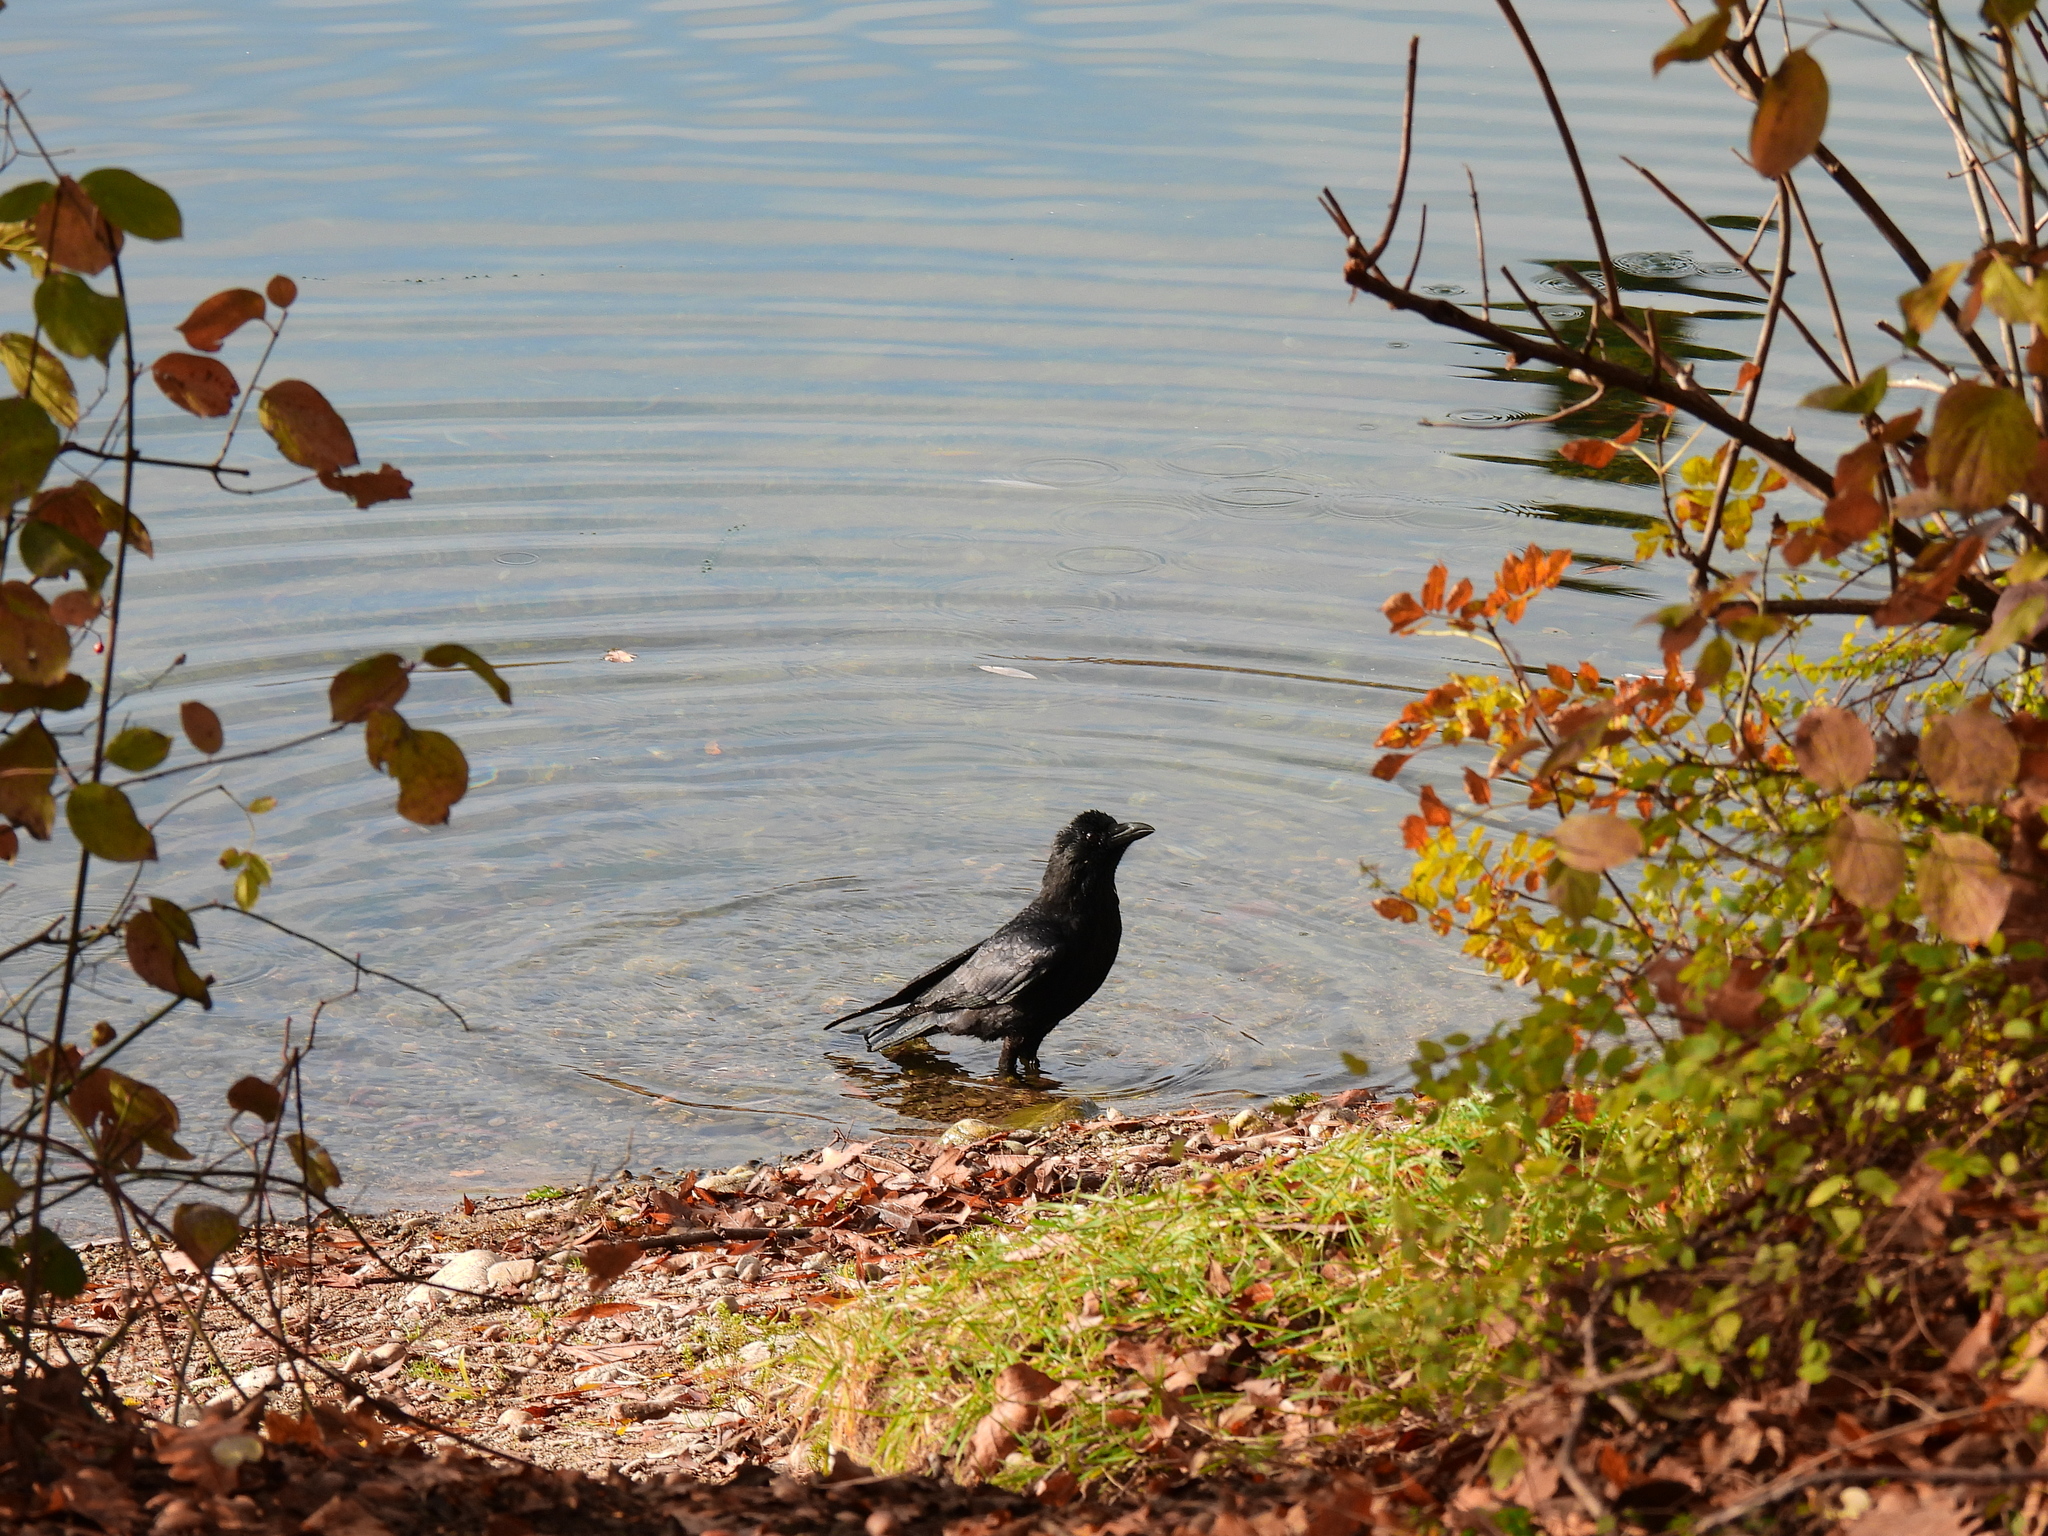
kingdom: Animalia
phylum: Chordata
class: Aves
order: Passeriformes
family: Corvidae
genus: Corvus
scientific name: Corvus corone
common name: Carrion crow
